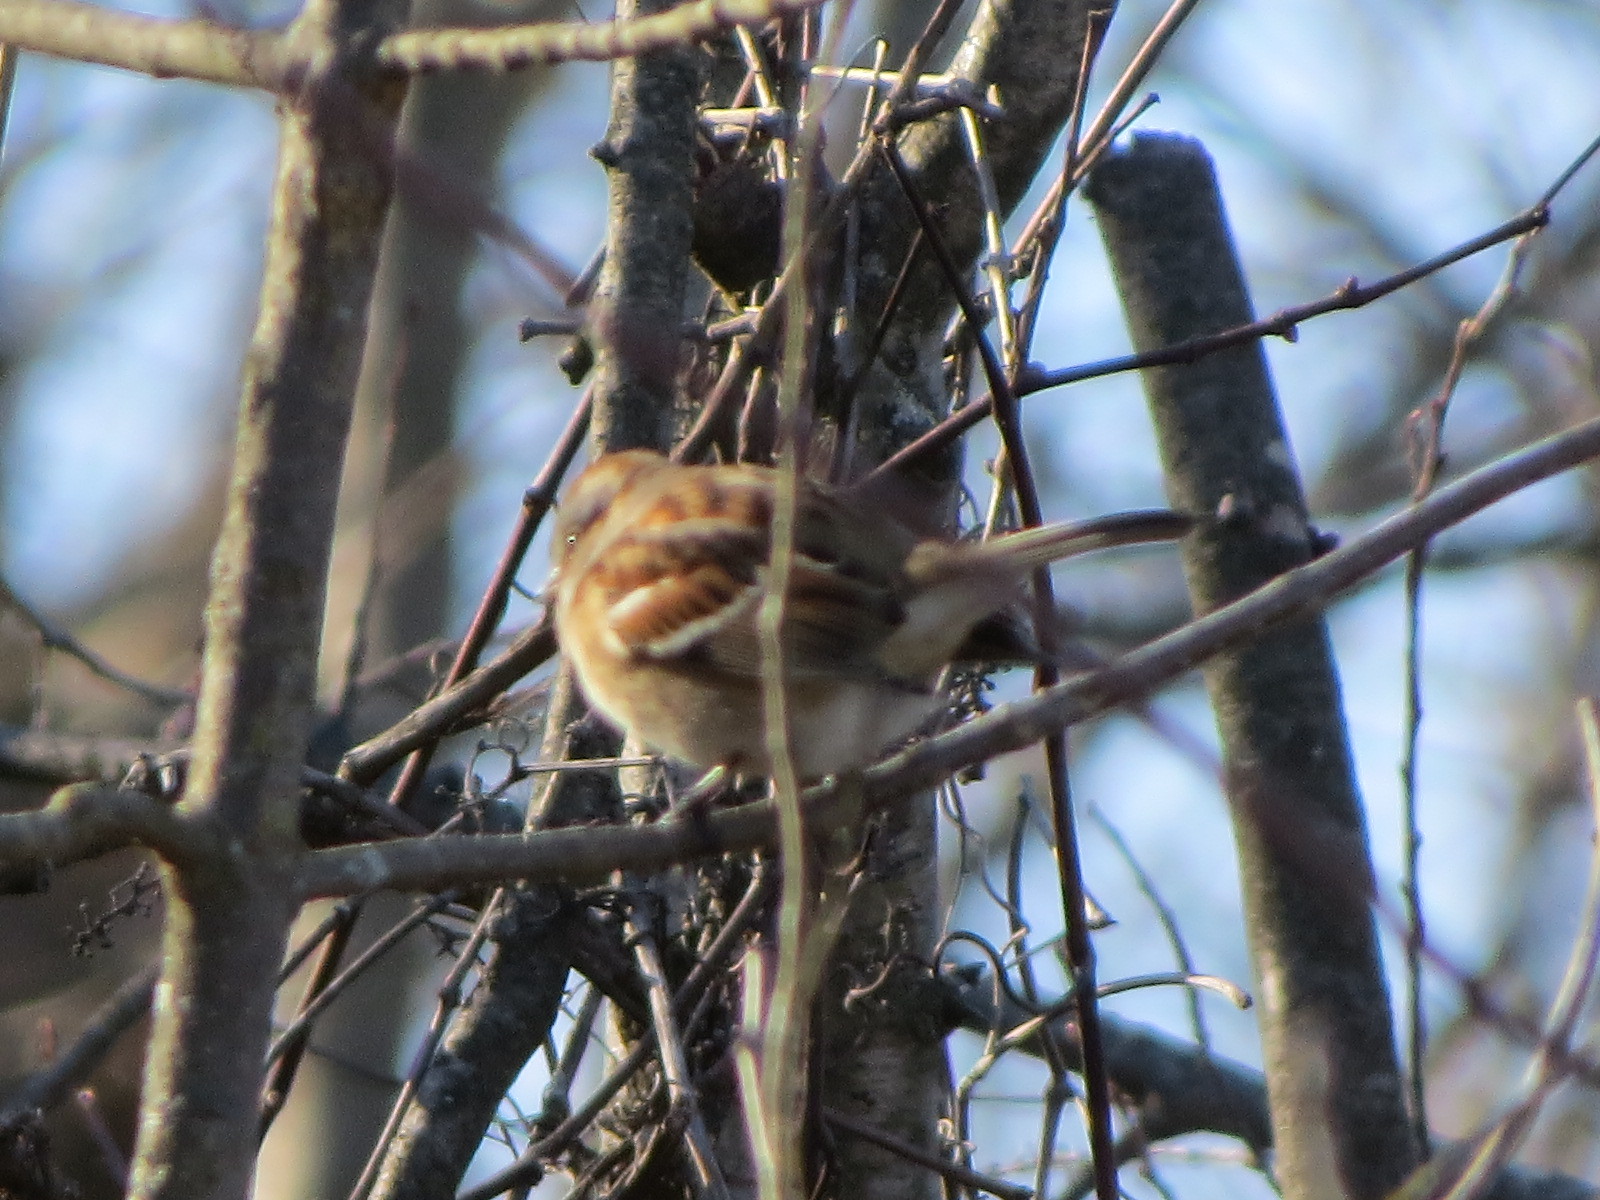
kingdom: Animalia
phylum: Chordata
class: Aves
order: Passeriformes
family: Passerellidae
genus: Spizelloides
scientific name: Spizelloides arborea
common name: American tree sparrow
